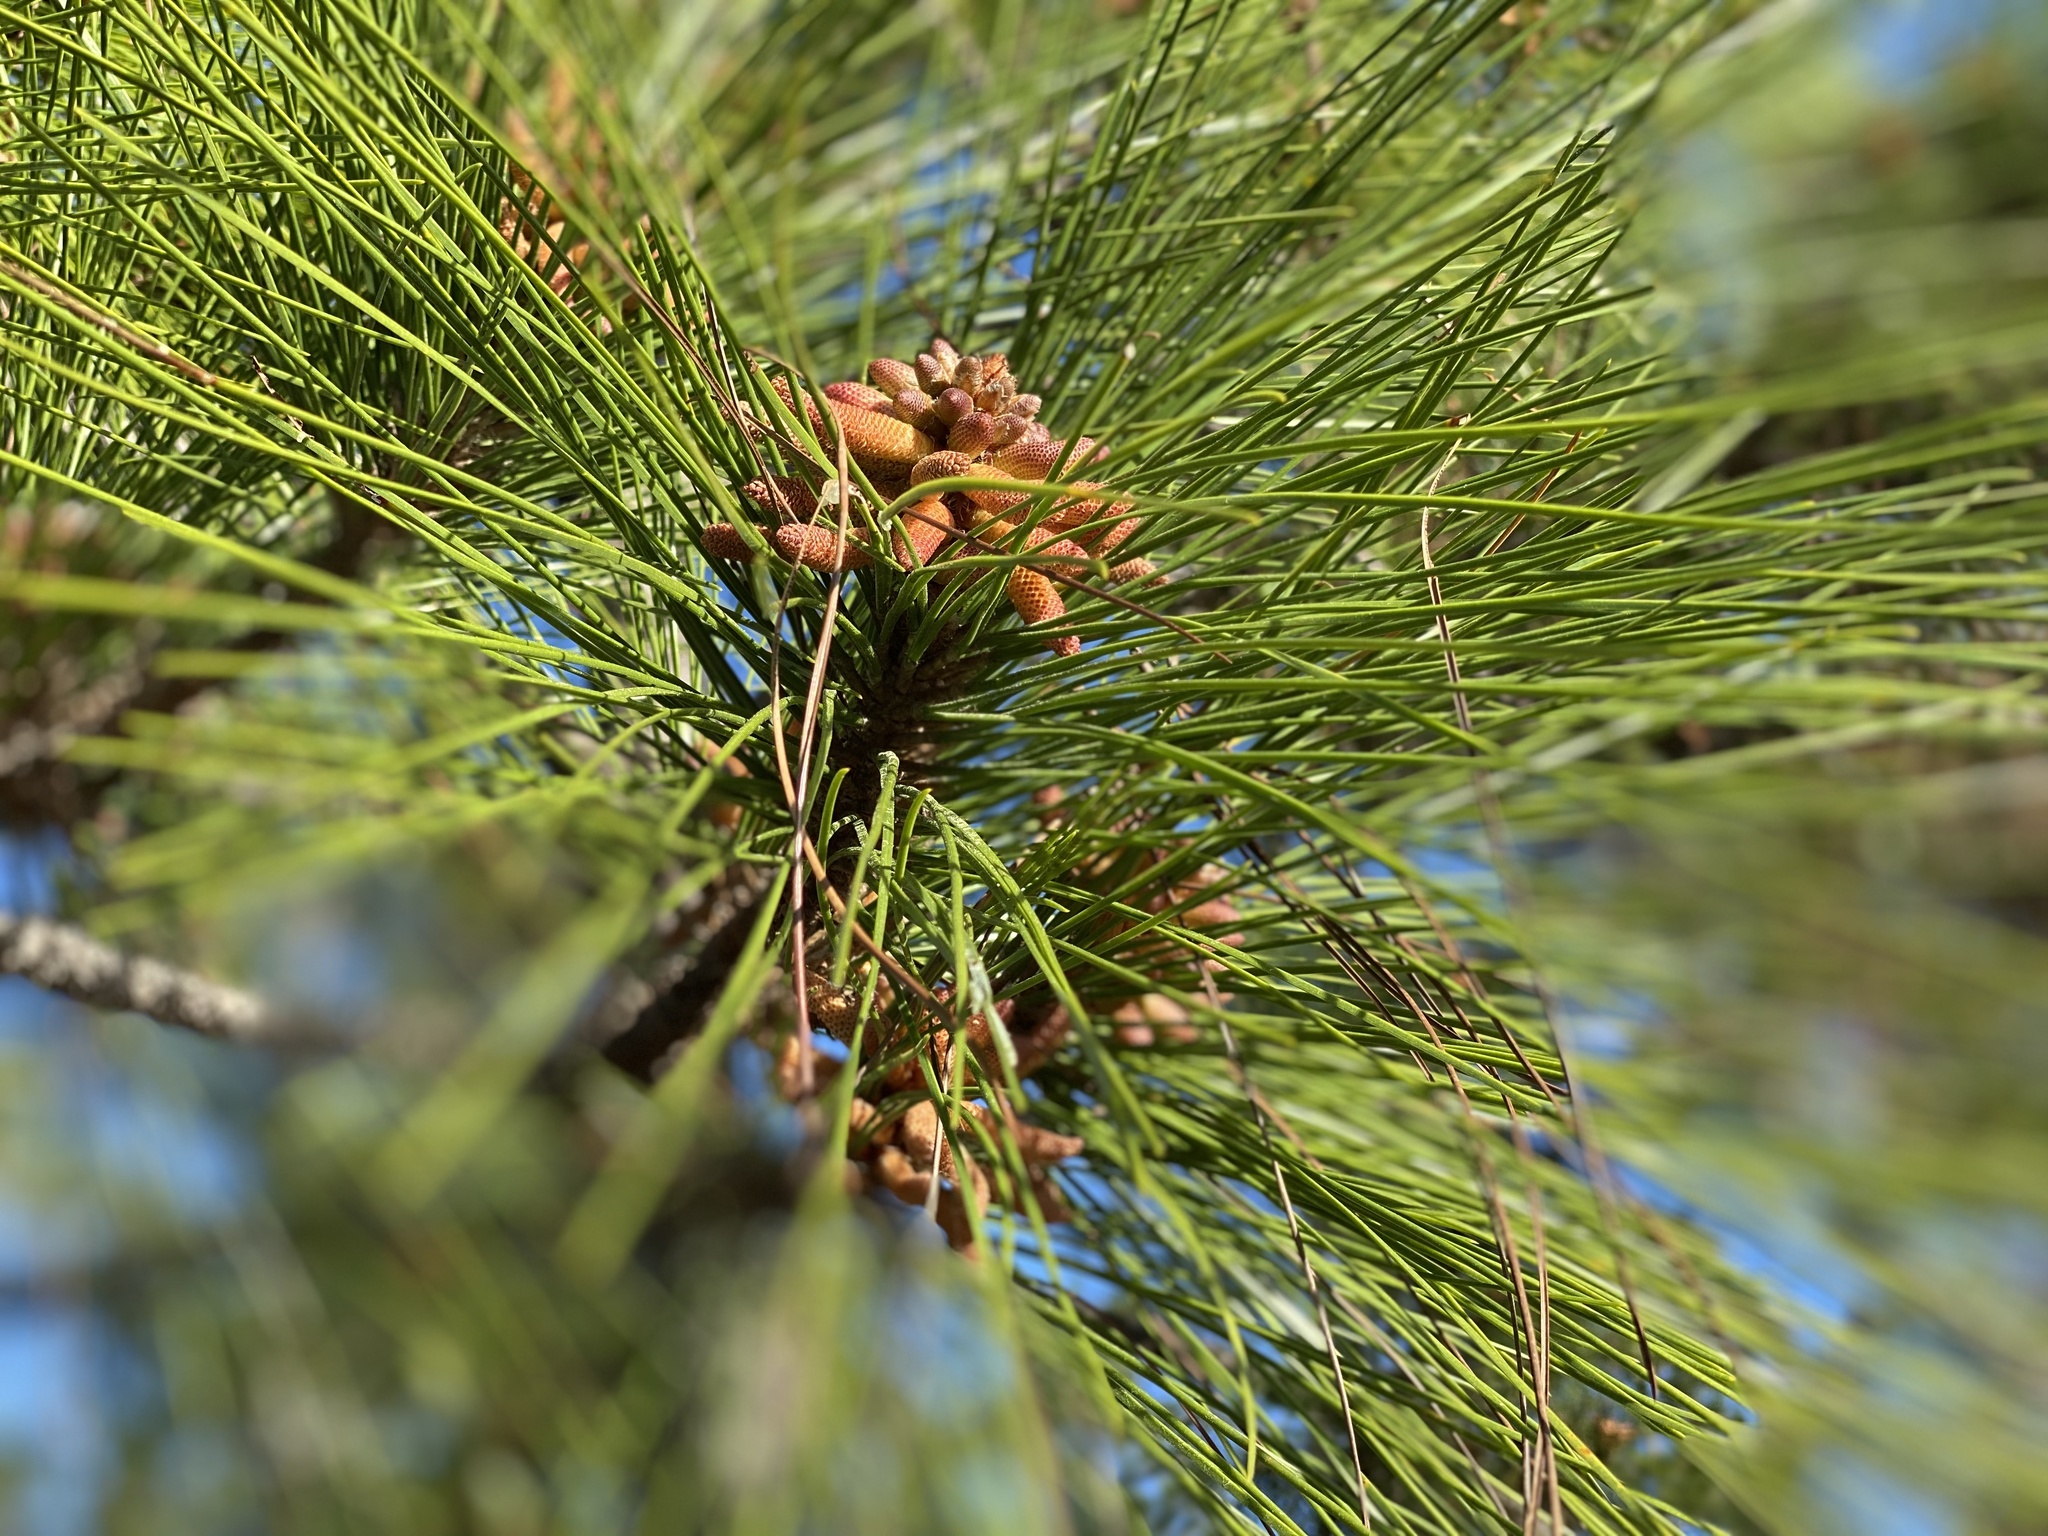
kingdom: Plantae
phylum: Tracheophyta
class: Pinopsida
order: Pinales
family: Pinaceae
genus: Pinus
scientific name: Pinus elliottii
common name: Slash pine
